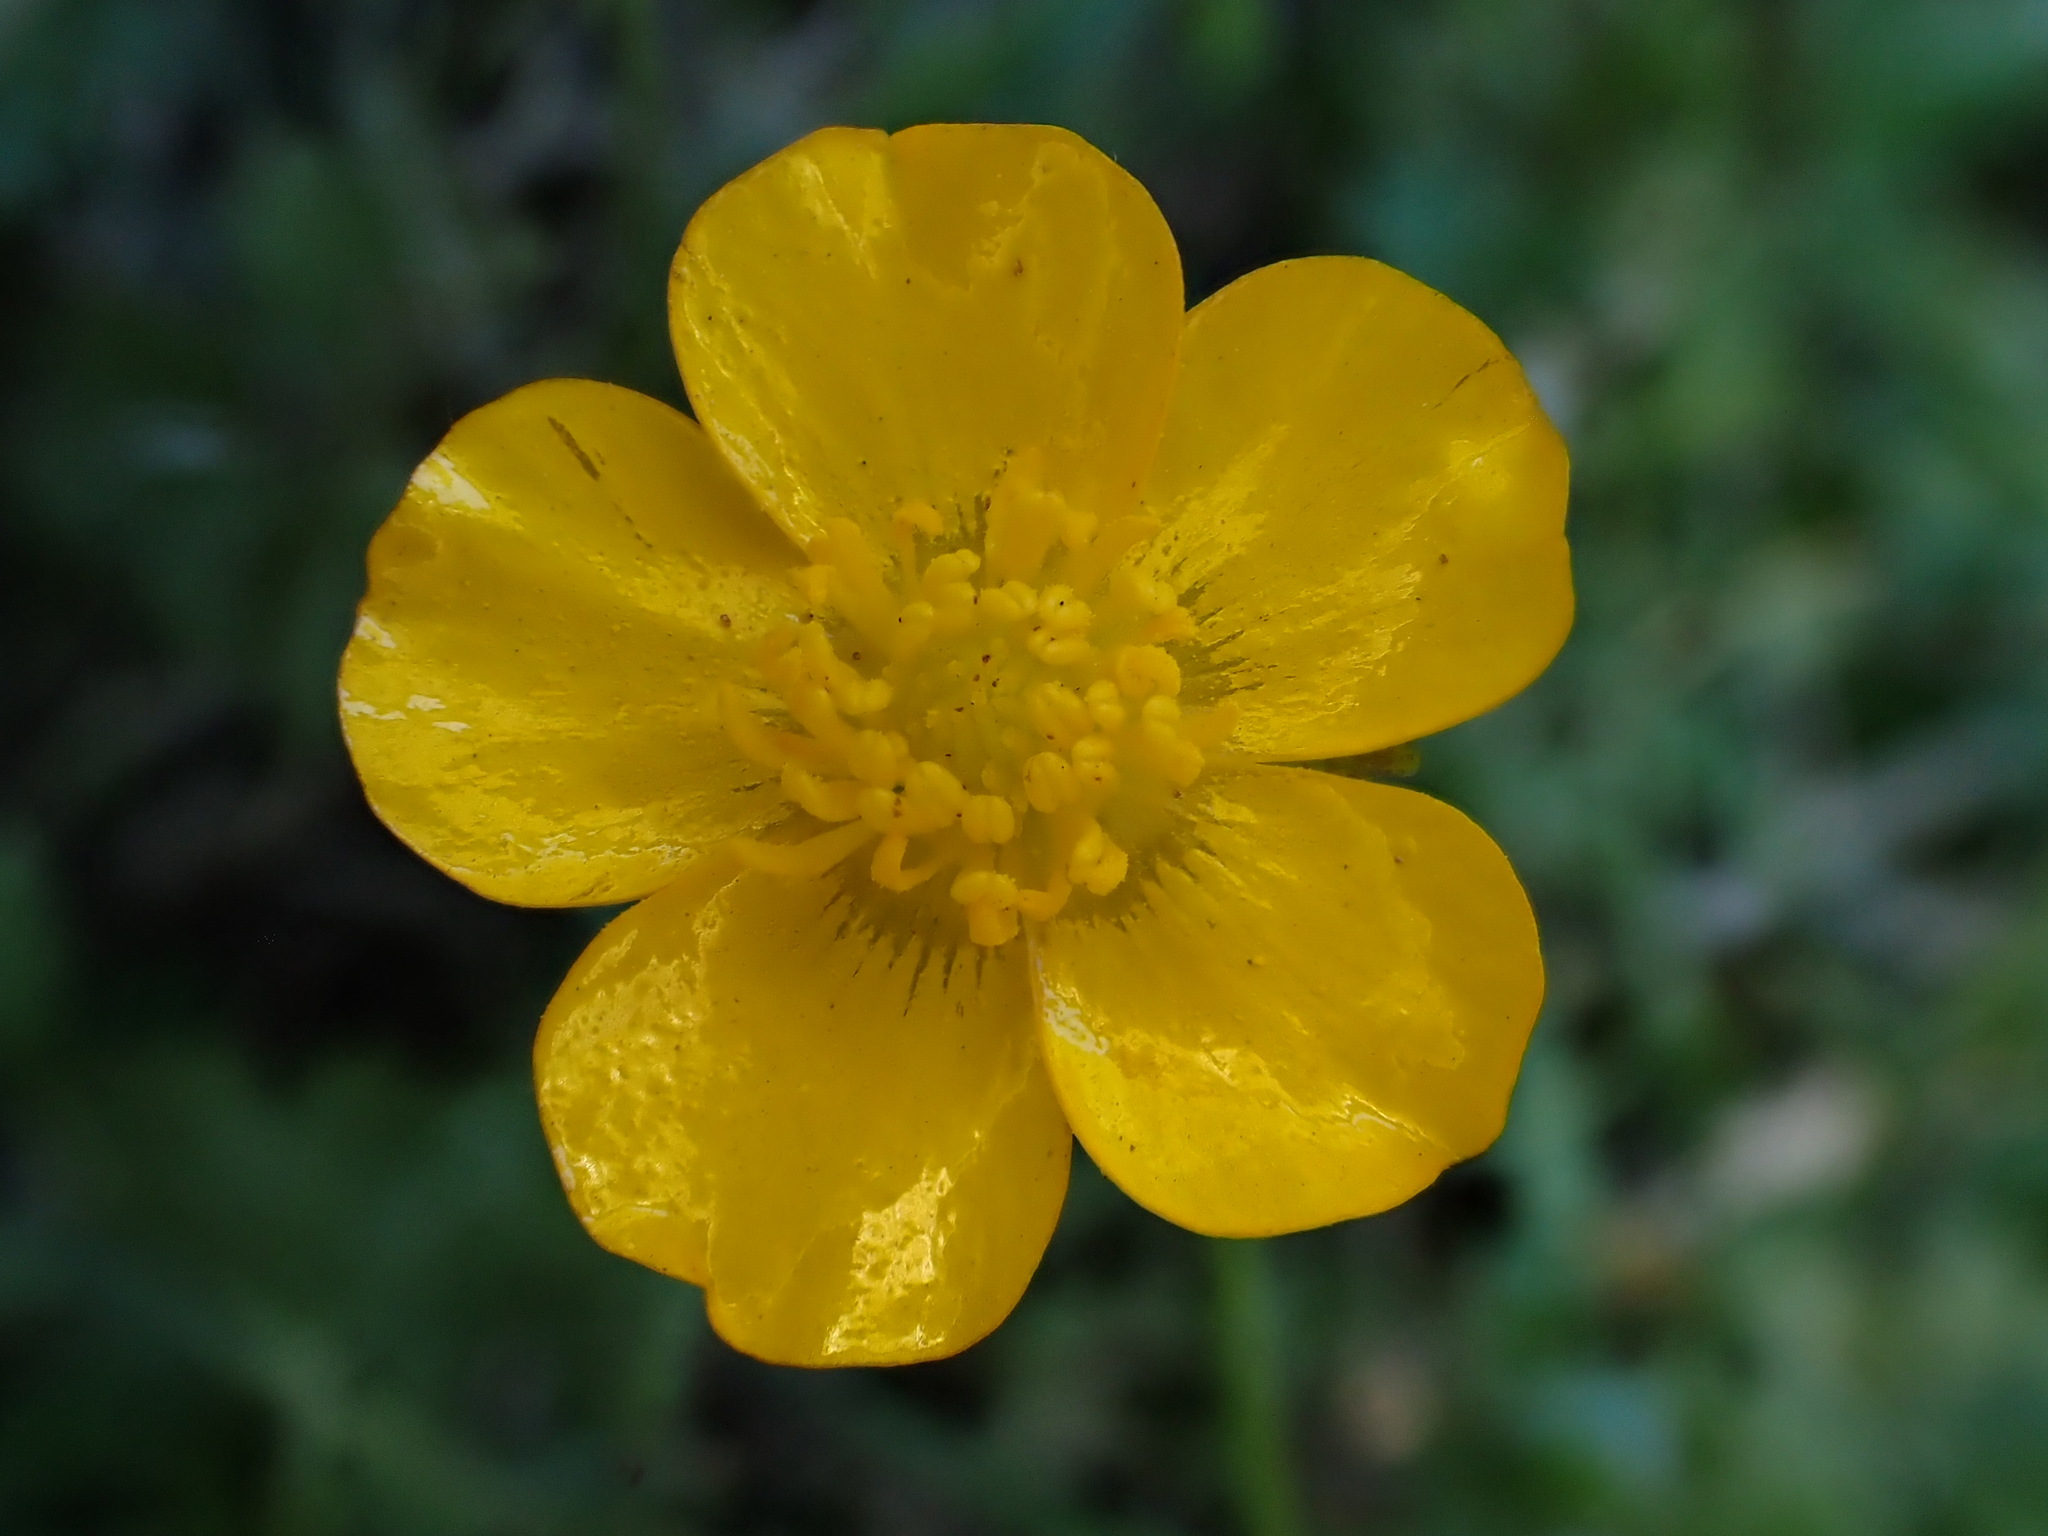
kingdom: Plantae
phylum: Tracheophyta
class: Magnoliopsida
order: Ranunculales
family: Ranunculaceae
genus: Ranunculus
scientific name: Ranunculus repens
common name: Creeping buttercup
